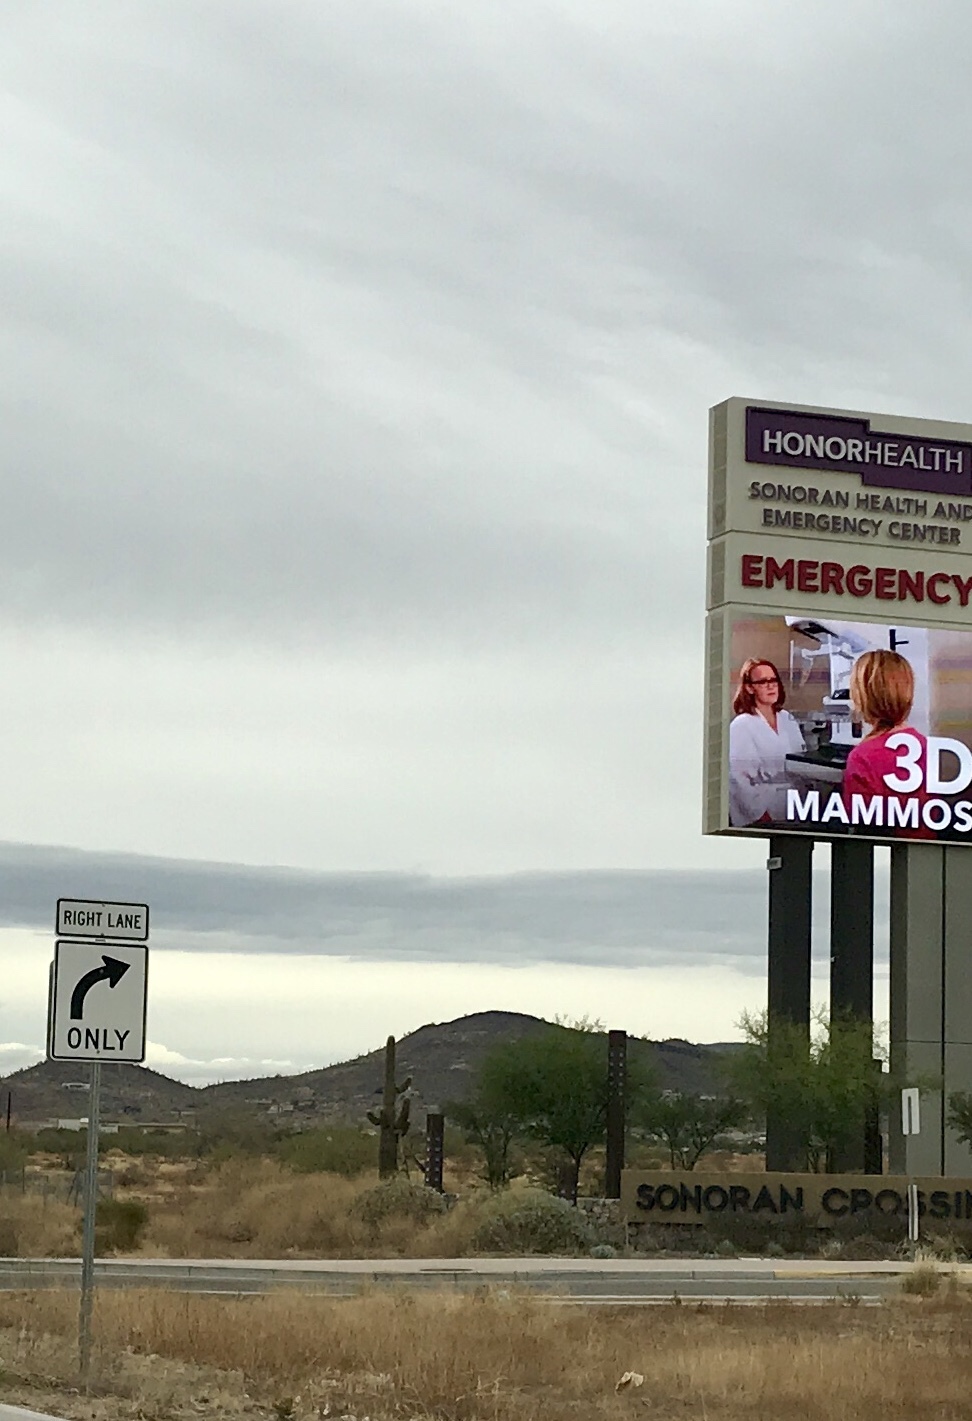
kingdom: Plantae
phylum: Tracheophyta
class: Magnoliopsida
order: Caryophyllales
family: Cactaceae
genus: Carnegiea
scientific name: Carnegiea gigantea
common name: Saguaro
